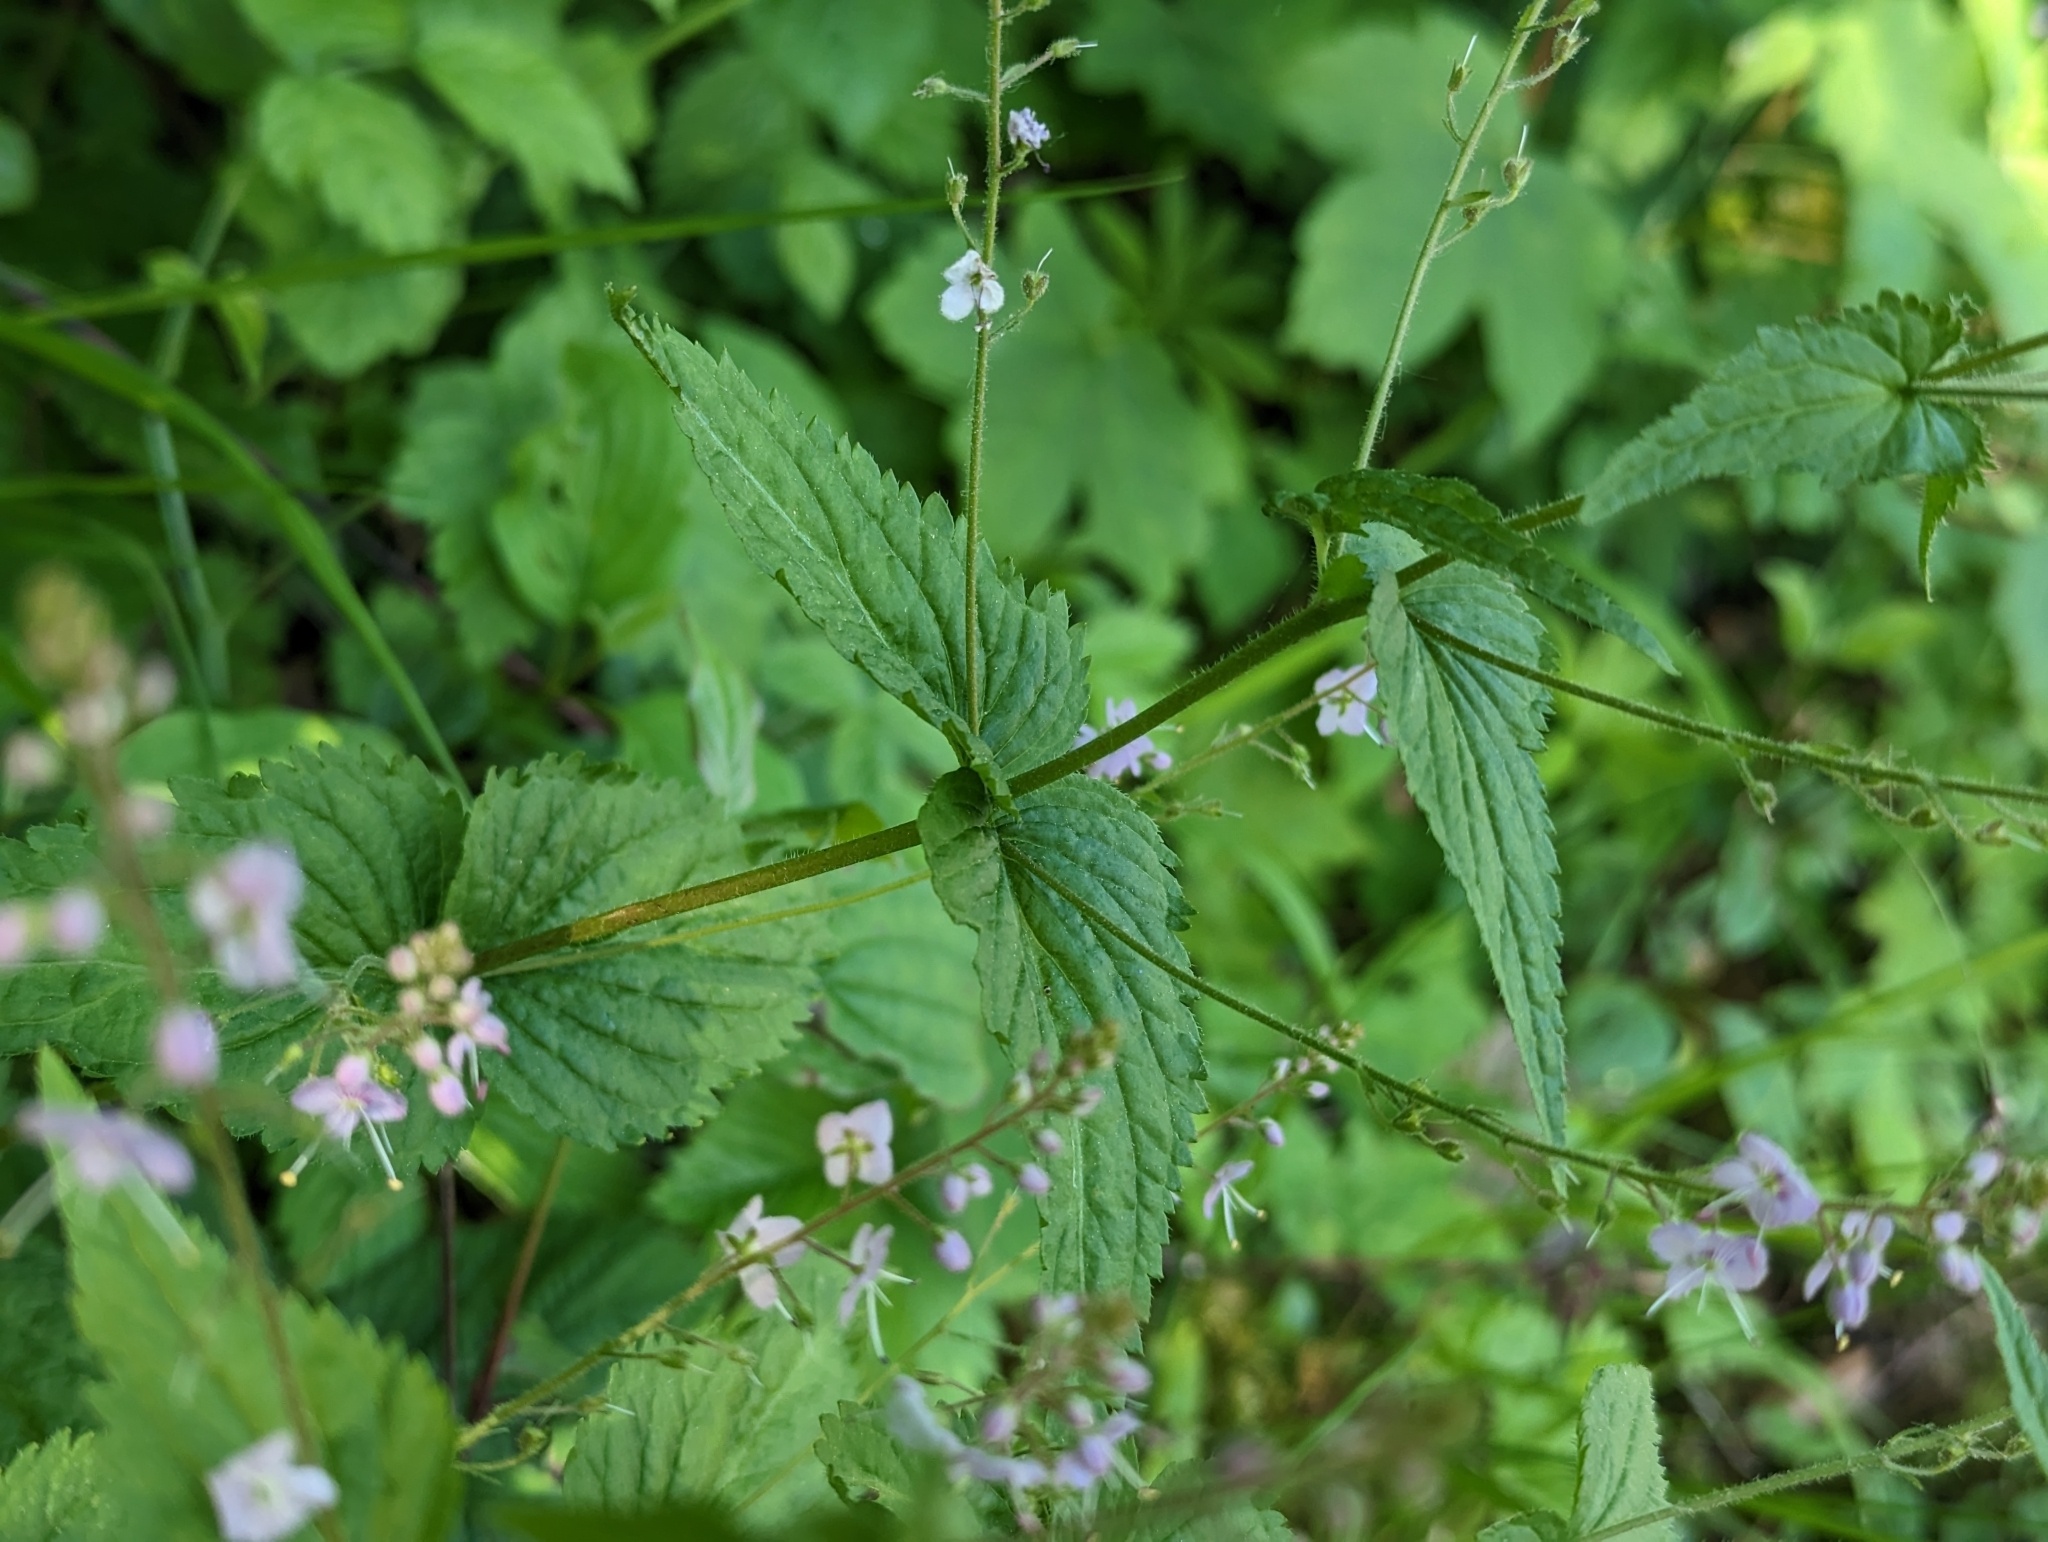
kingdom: Plantae
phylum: Tracheophyta
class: Magnoliopsida
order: Lamiales
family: Plantaginaceae
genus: Veronica
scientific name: Veronica urticifolia
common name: Nettle-leaf speedwell
